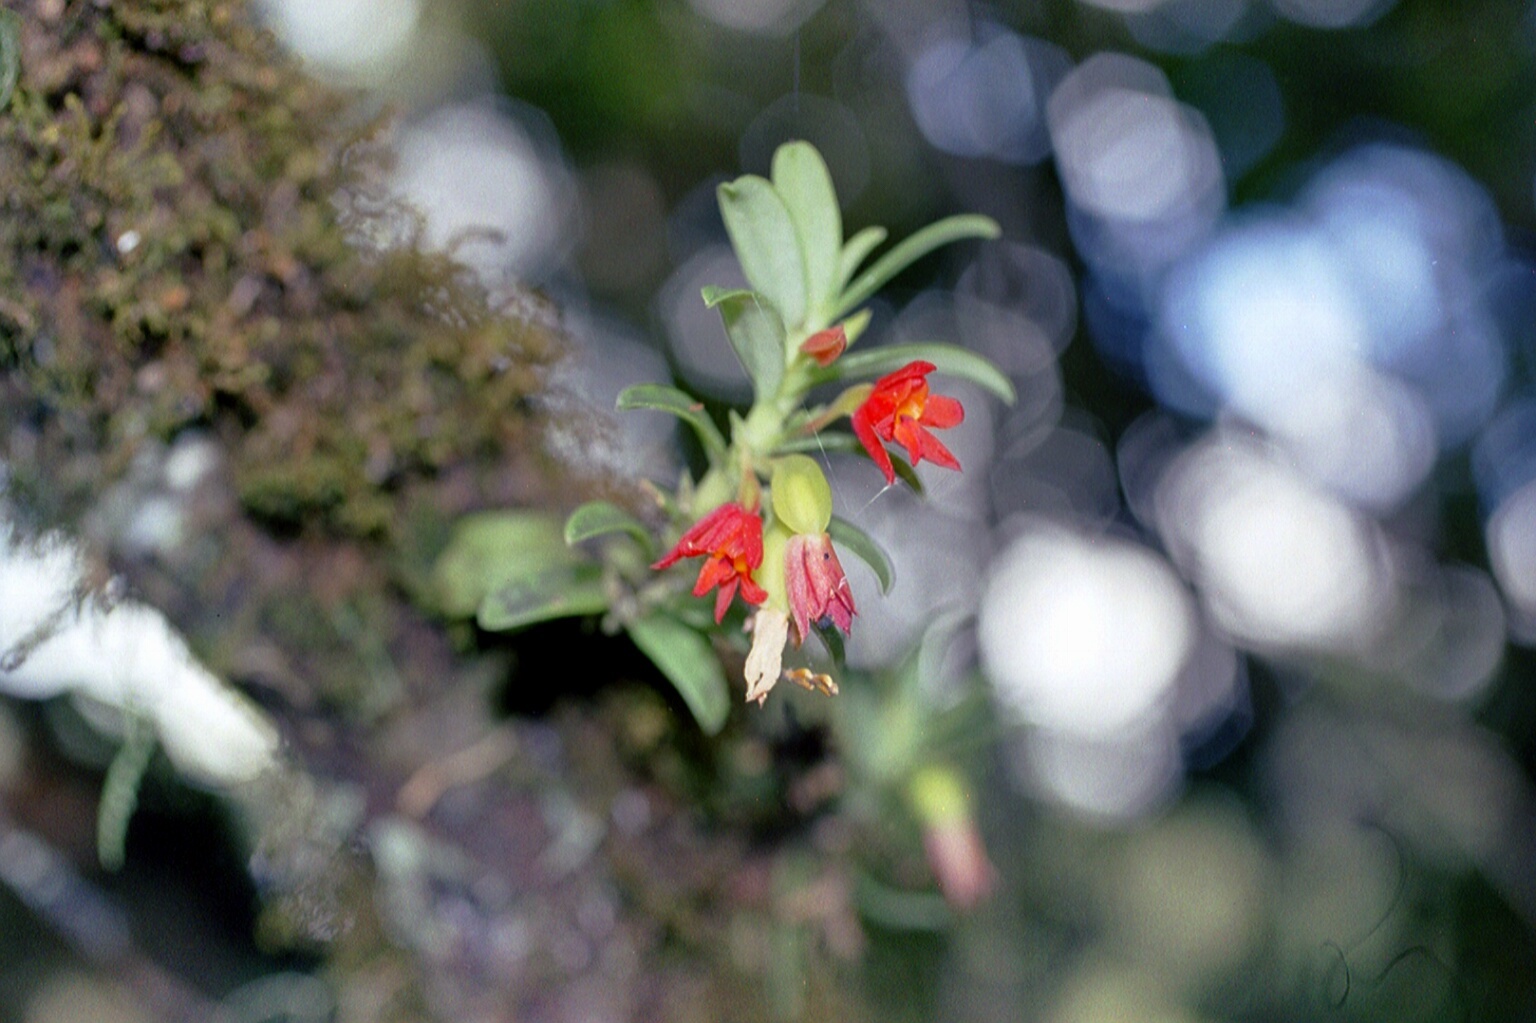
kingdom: Plantae
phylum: Tracheophyta
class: Liliopsida
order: Asparagales
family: Orchidaceae
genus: Fernandezia
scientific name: Fernandezia sanguinea
